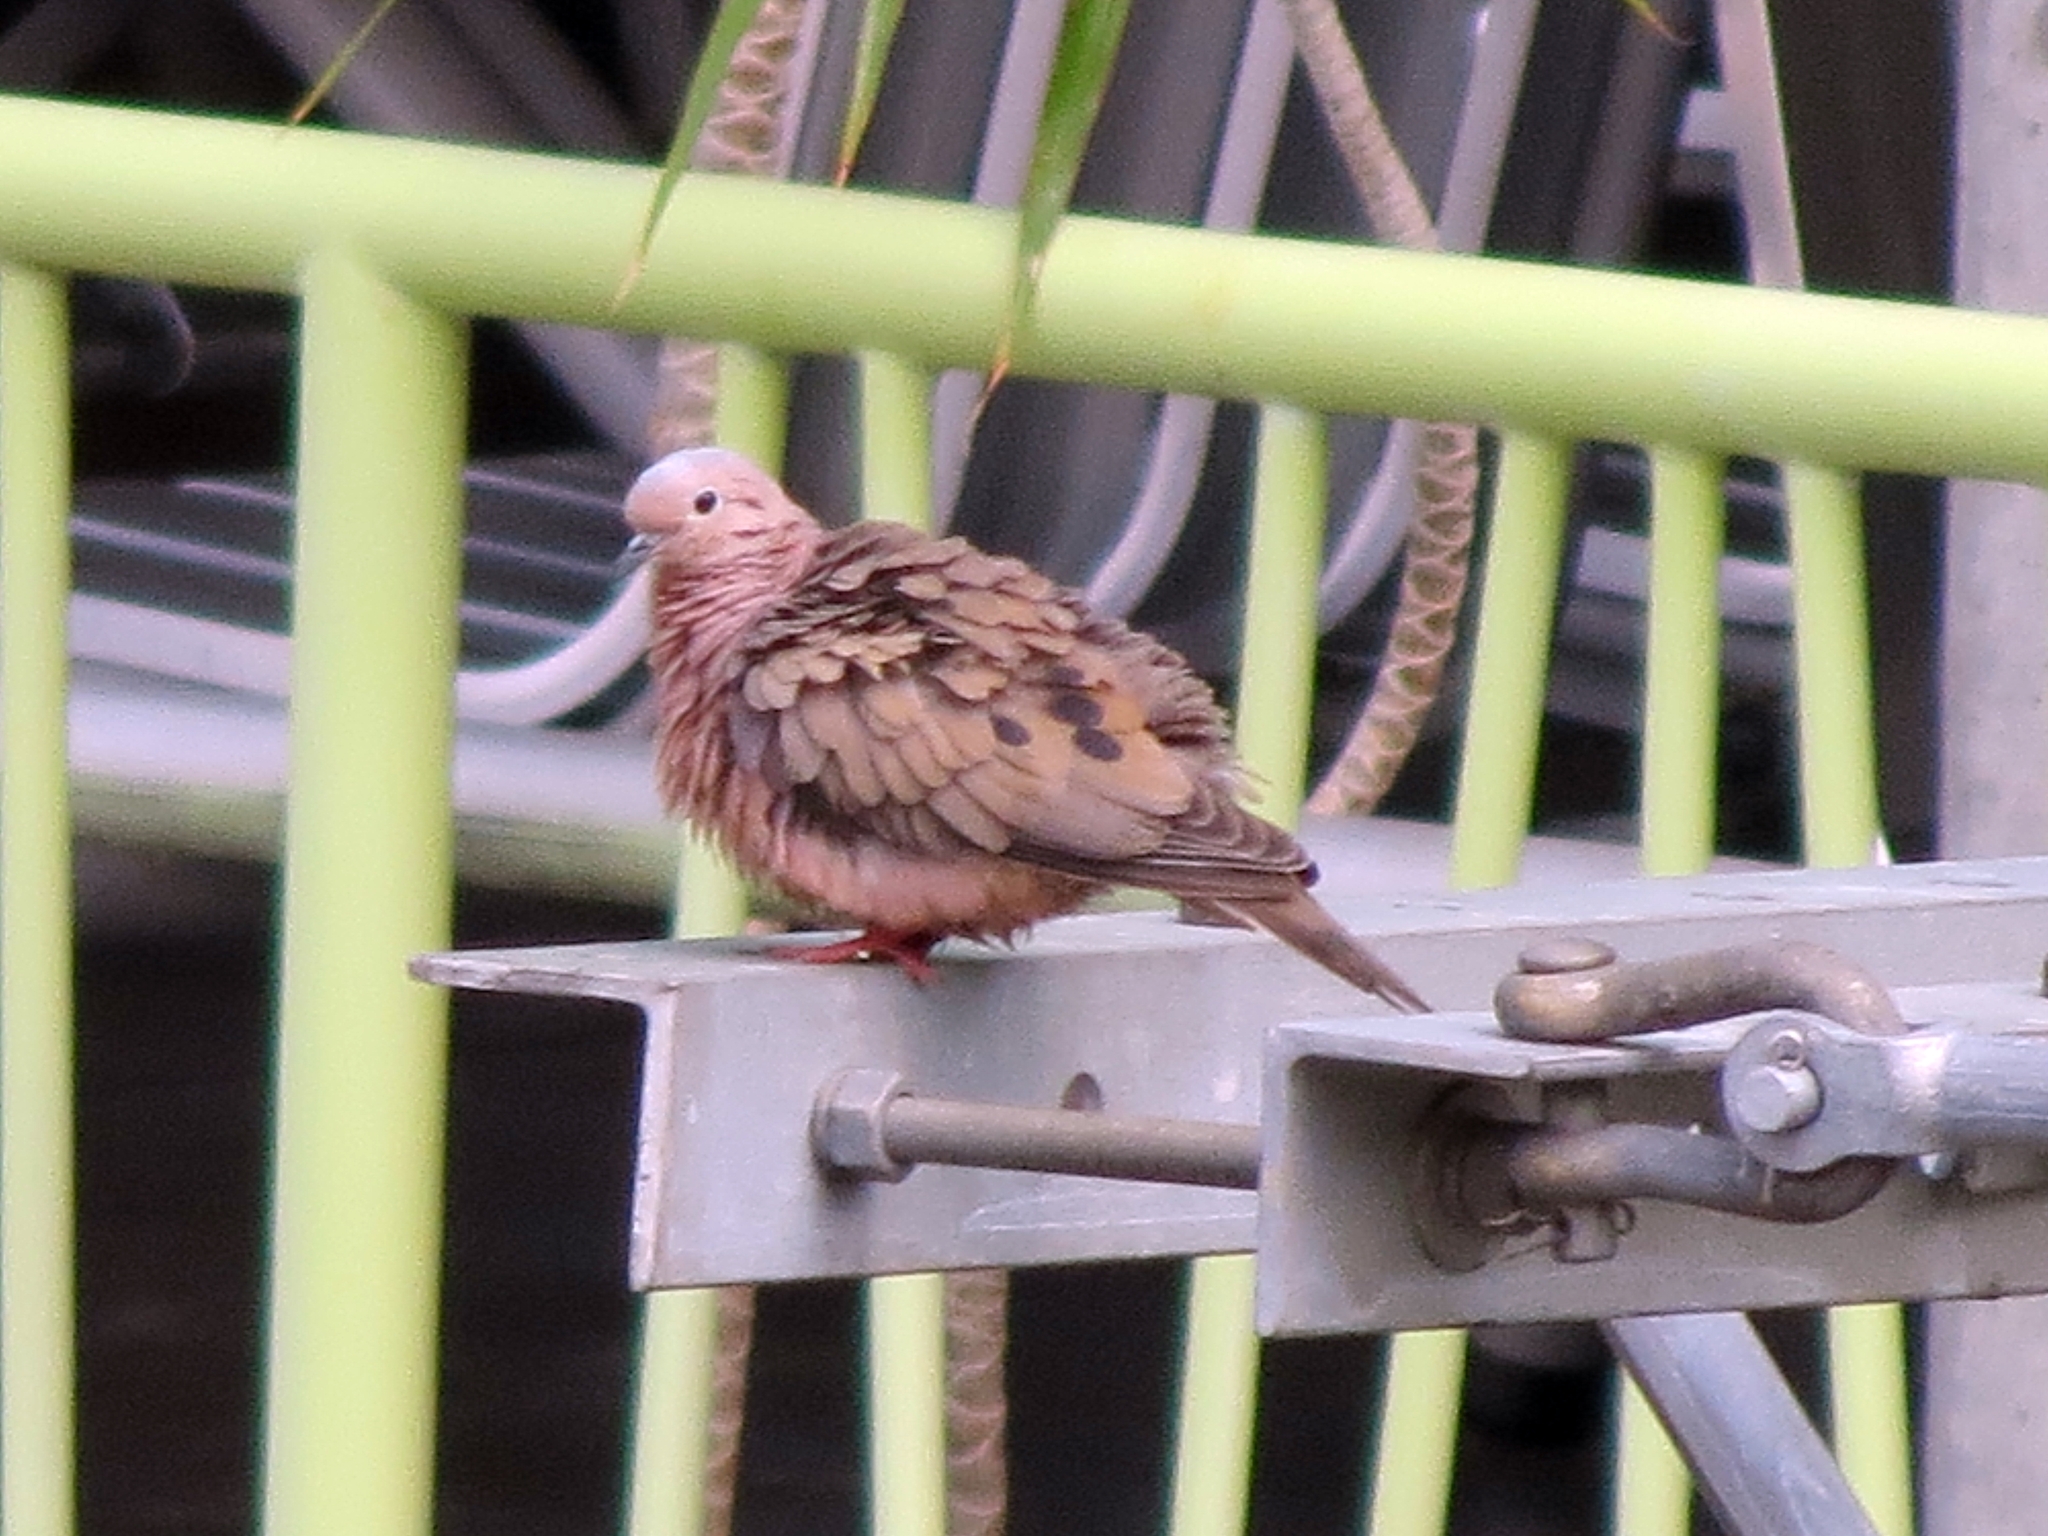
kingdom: Animalia
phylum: Chordata
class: Aves
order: Columbiformes
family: Columbidae
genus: Zenaida
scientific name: Zenaida auriculata
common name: Eared dove
